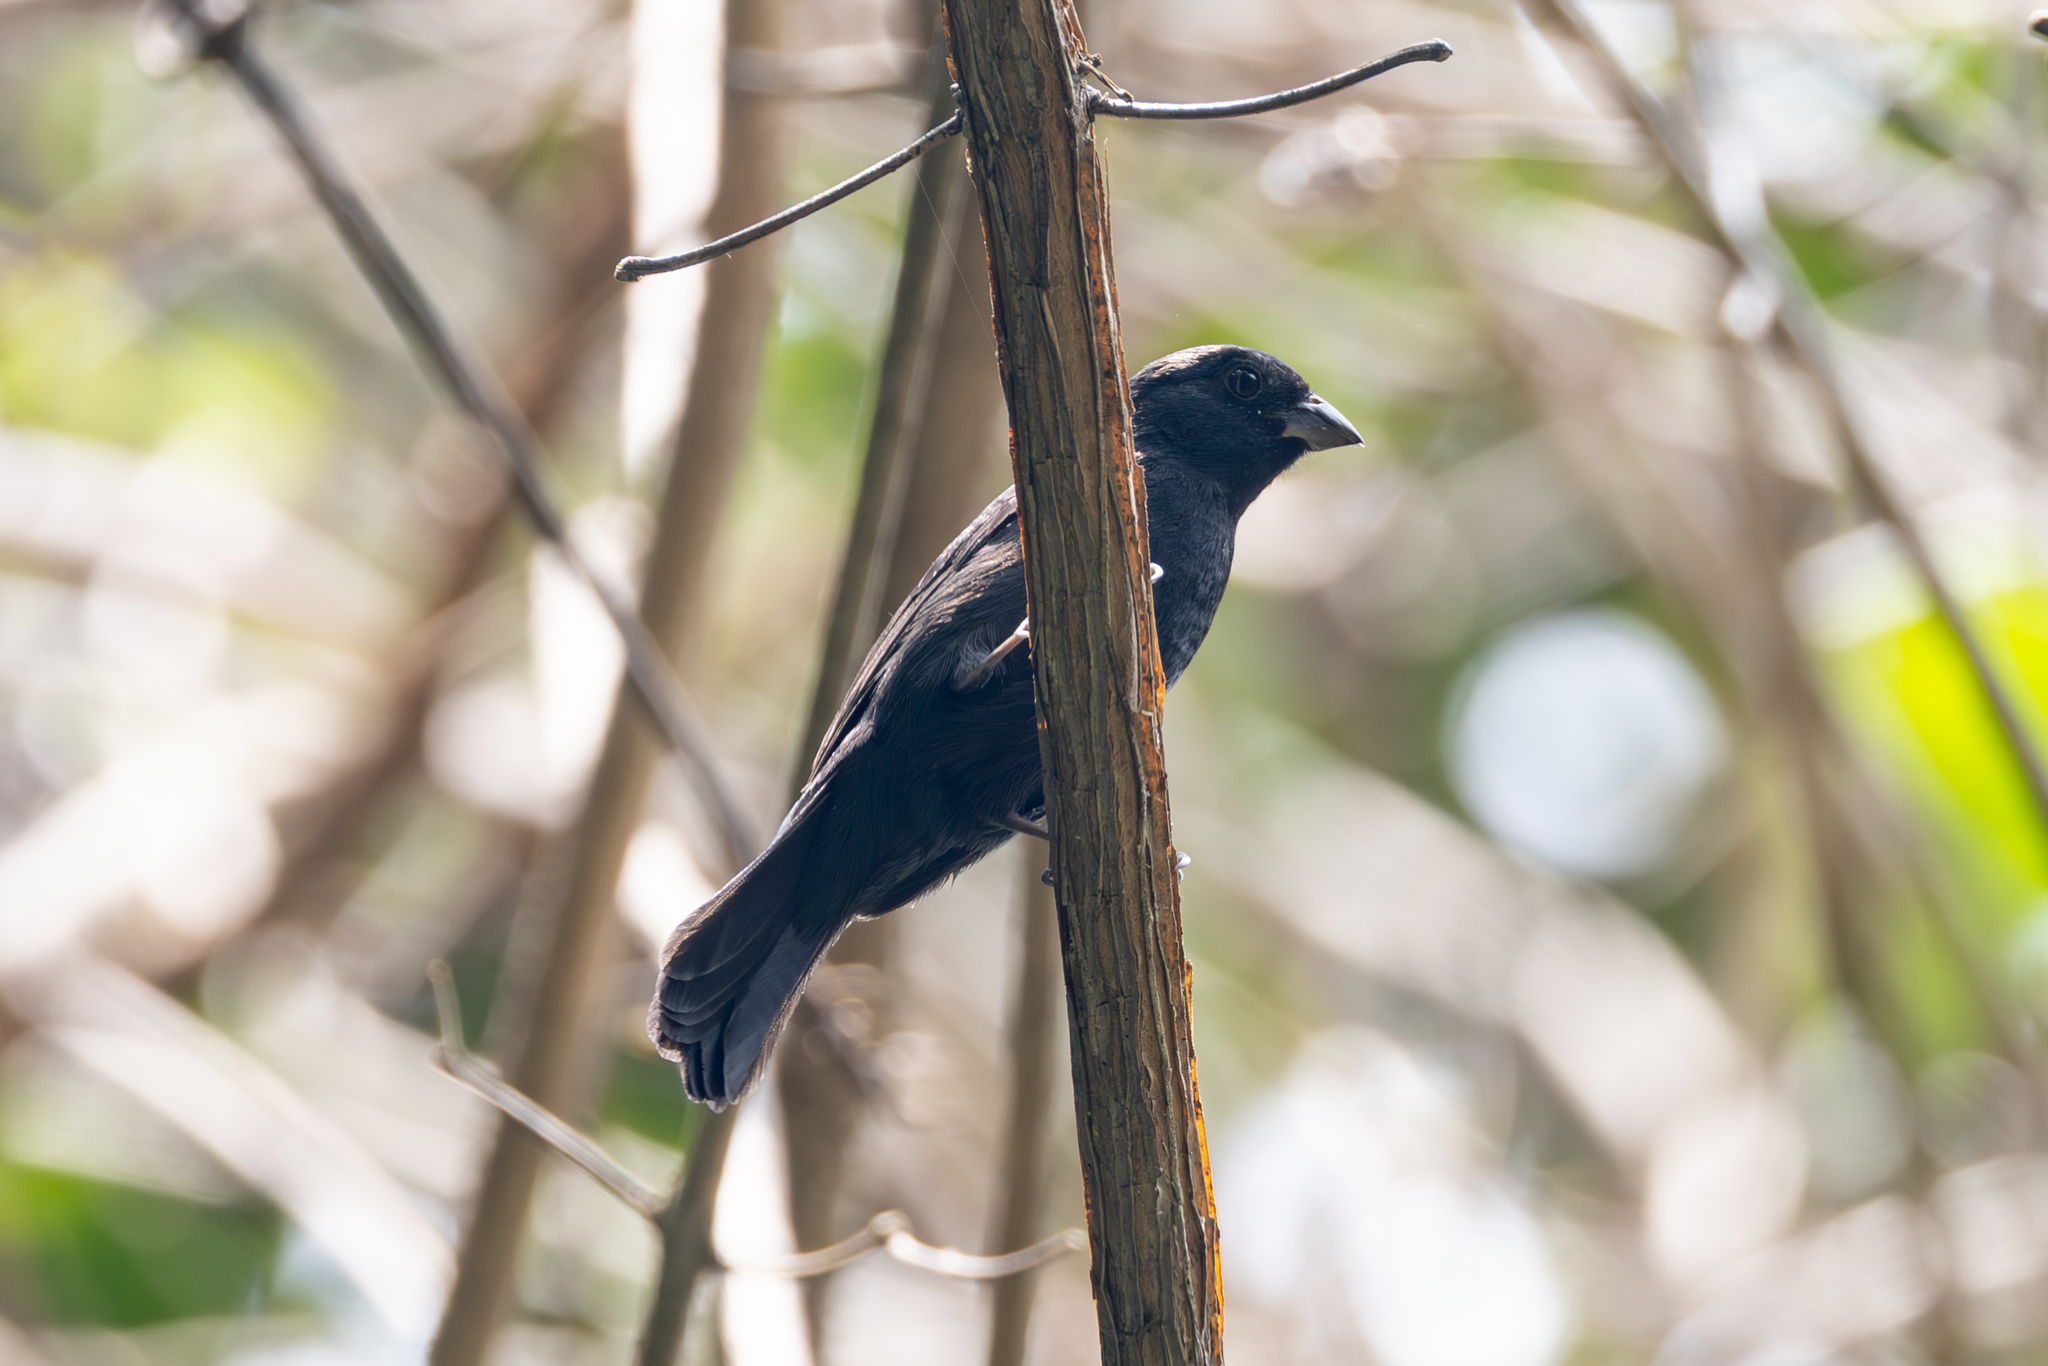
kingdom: Animalia
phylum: Chordata
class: Aves
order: Passeriformes
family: Cardinalidae
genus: Amaurospiza
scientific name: Amaurospiza concolor
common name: Blue seedeater
